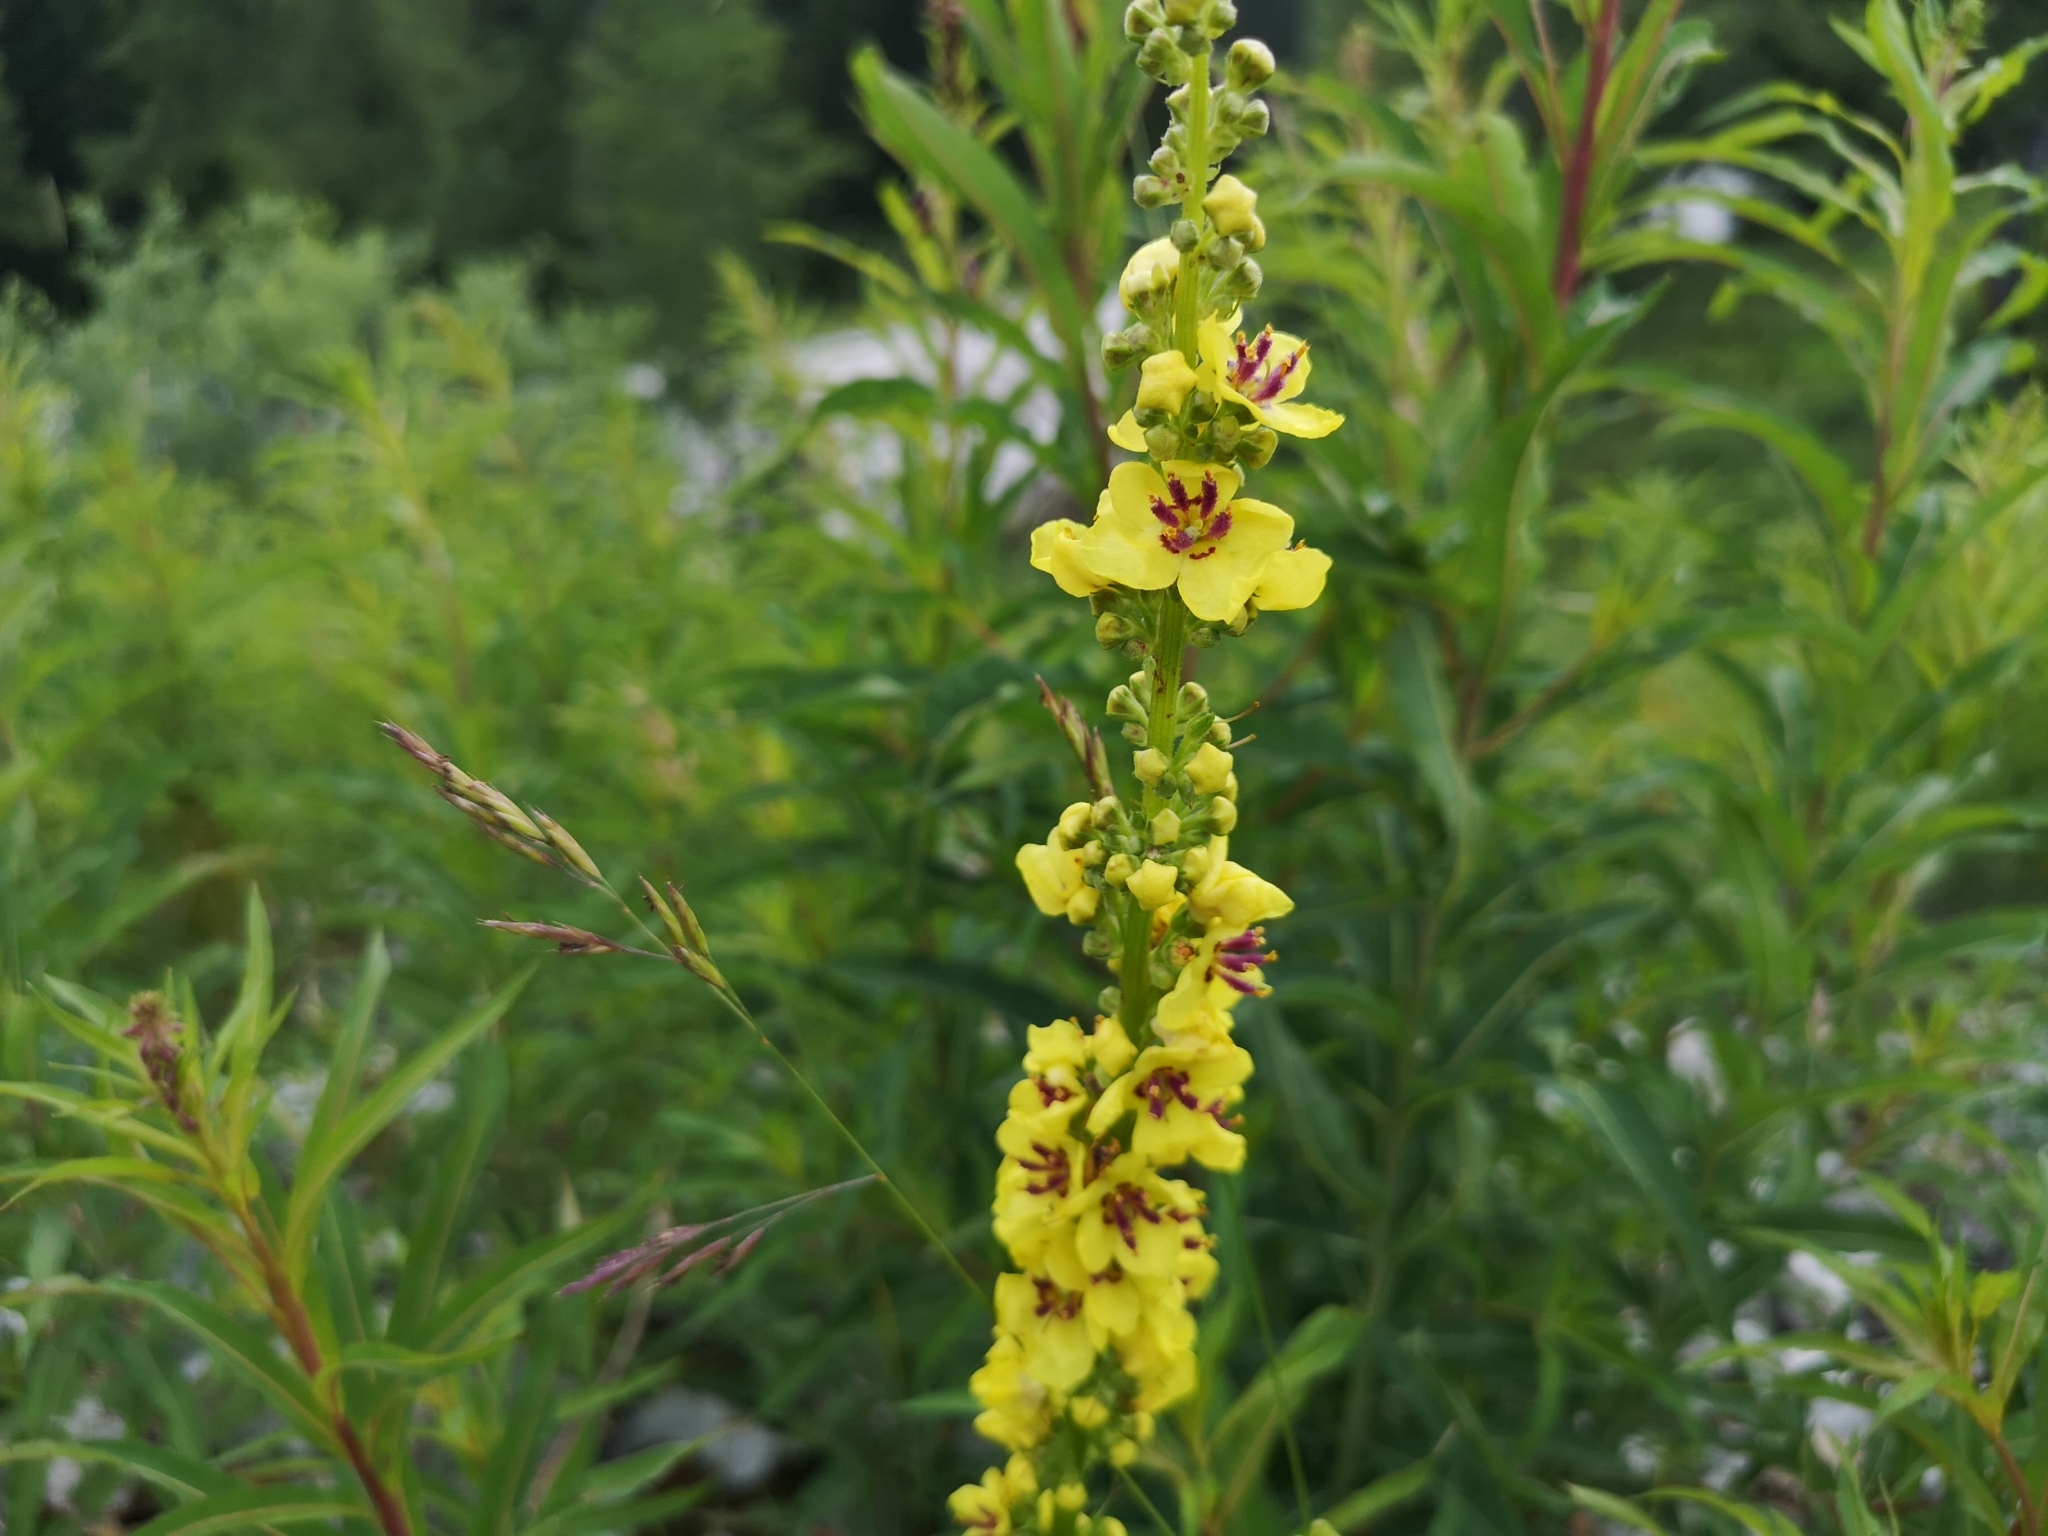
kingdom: Plantae
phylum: Tracheophyta
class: Magnoliopsida
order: Lamiales
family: Scrophulariaceae
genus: Verbascum
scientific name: Verbascum nigrum
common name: Dark mullein
